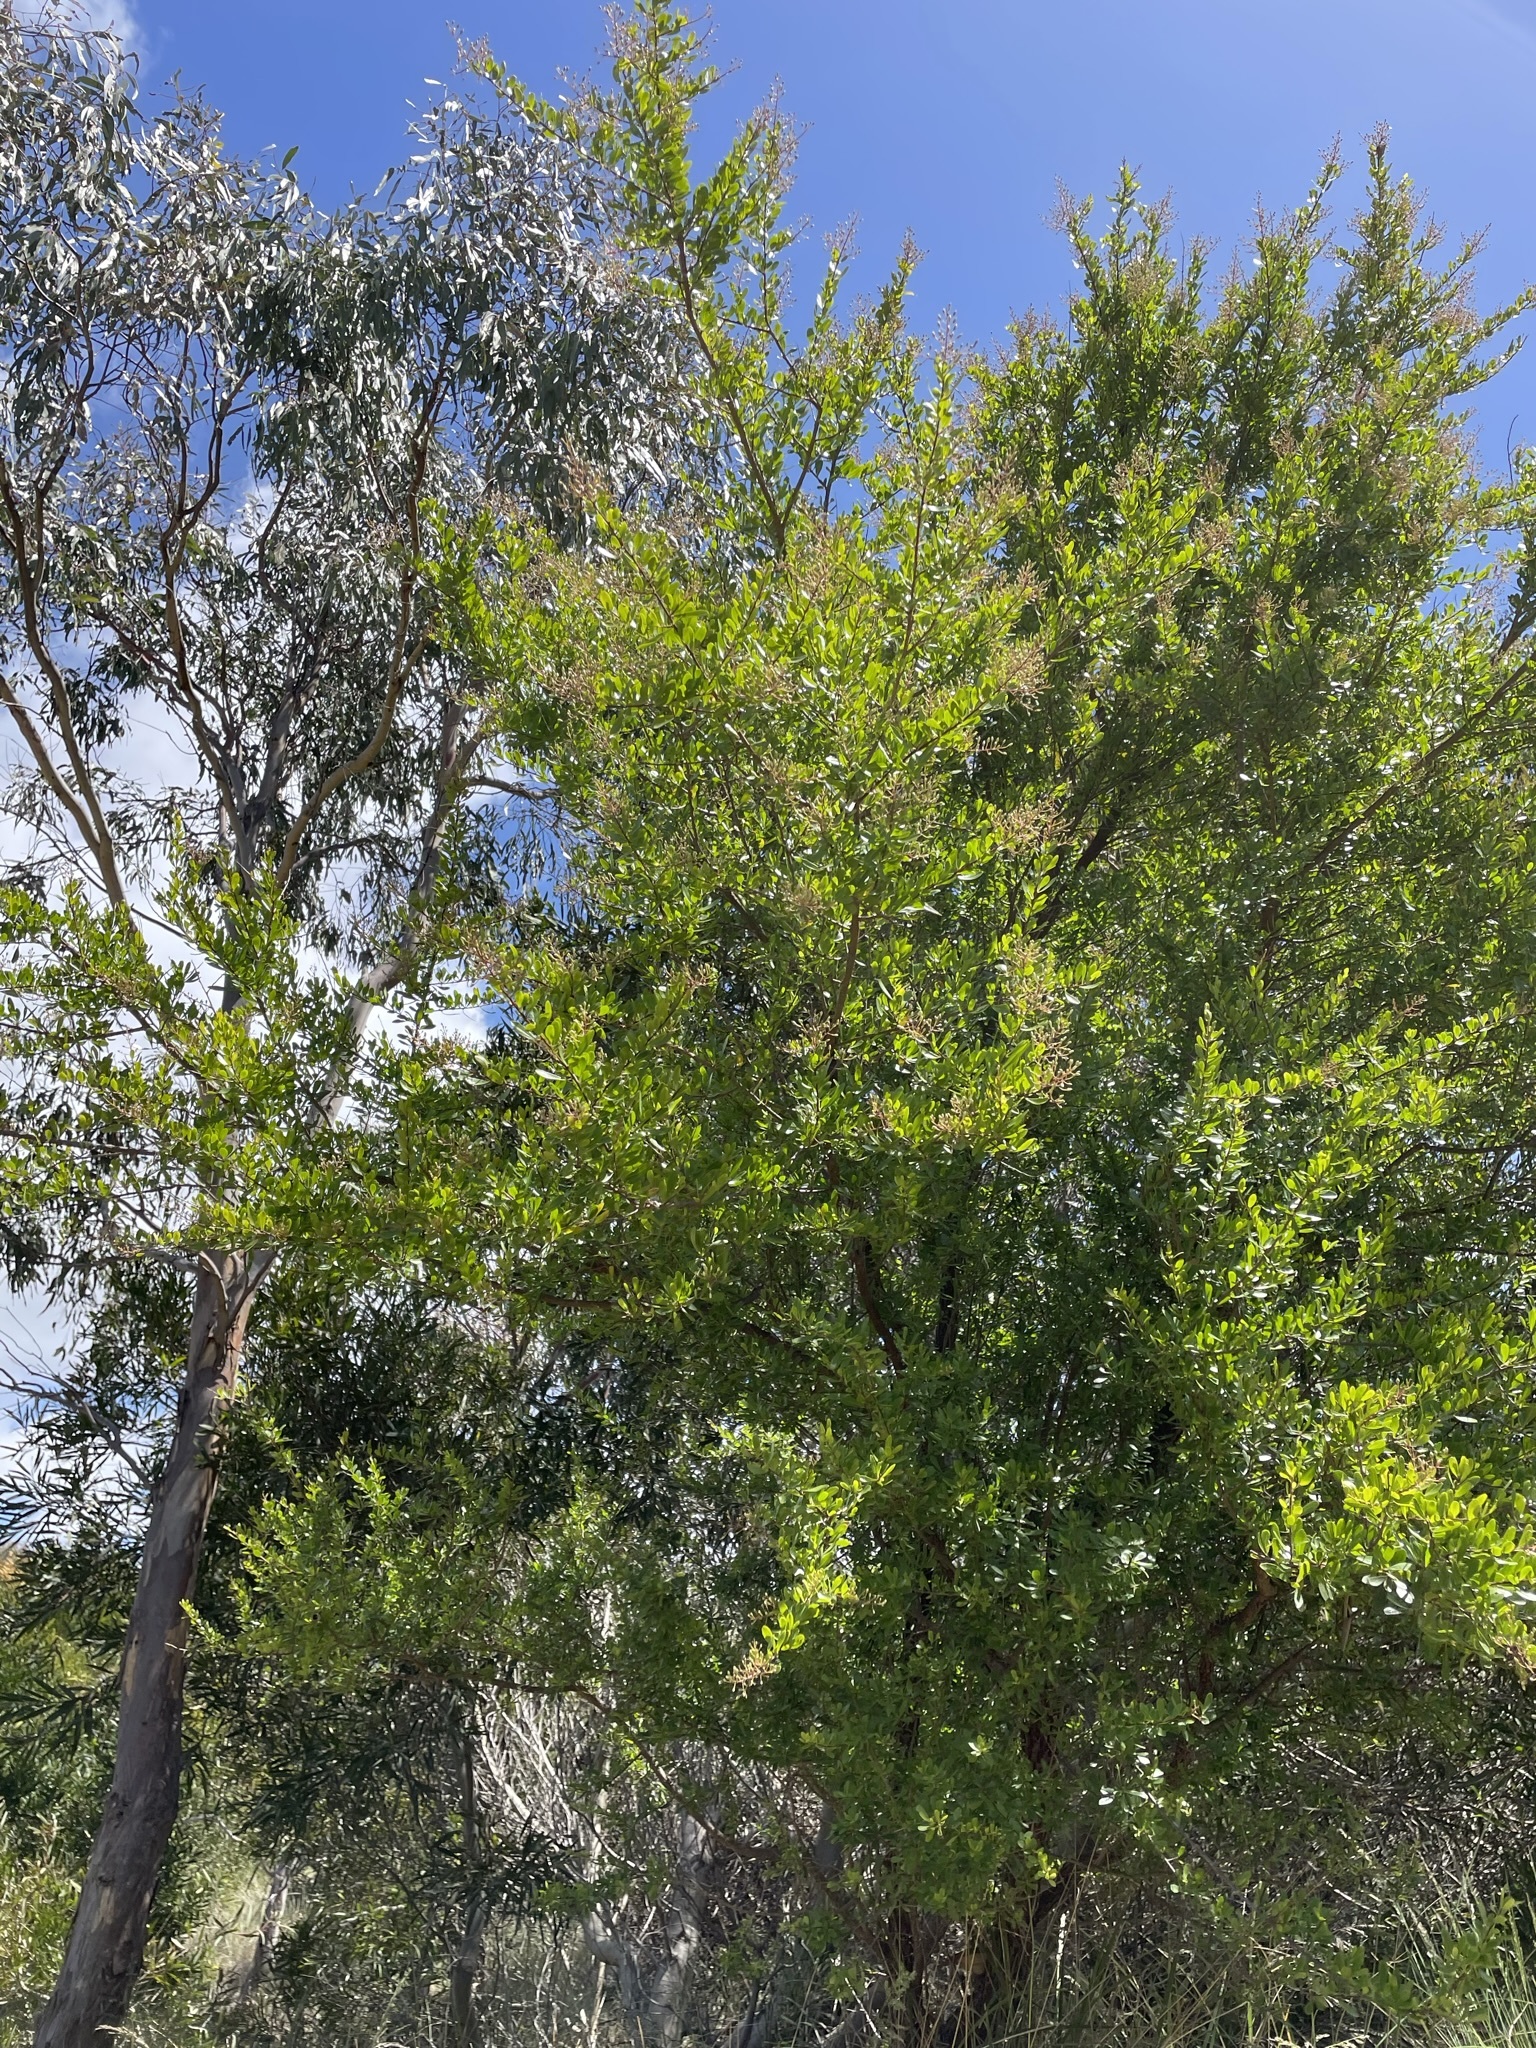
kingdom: Plantae
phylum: Tracheophyta
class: Magnoliopsida
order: Apiales
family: Pittosporaceae
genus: Bursaria
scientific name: Bursaria spinosa
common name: Australian blackthorn
